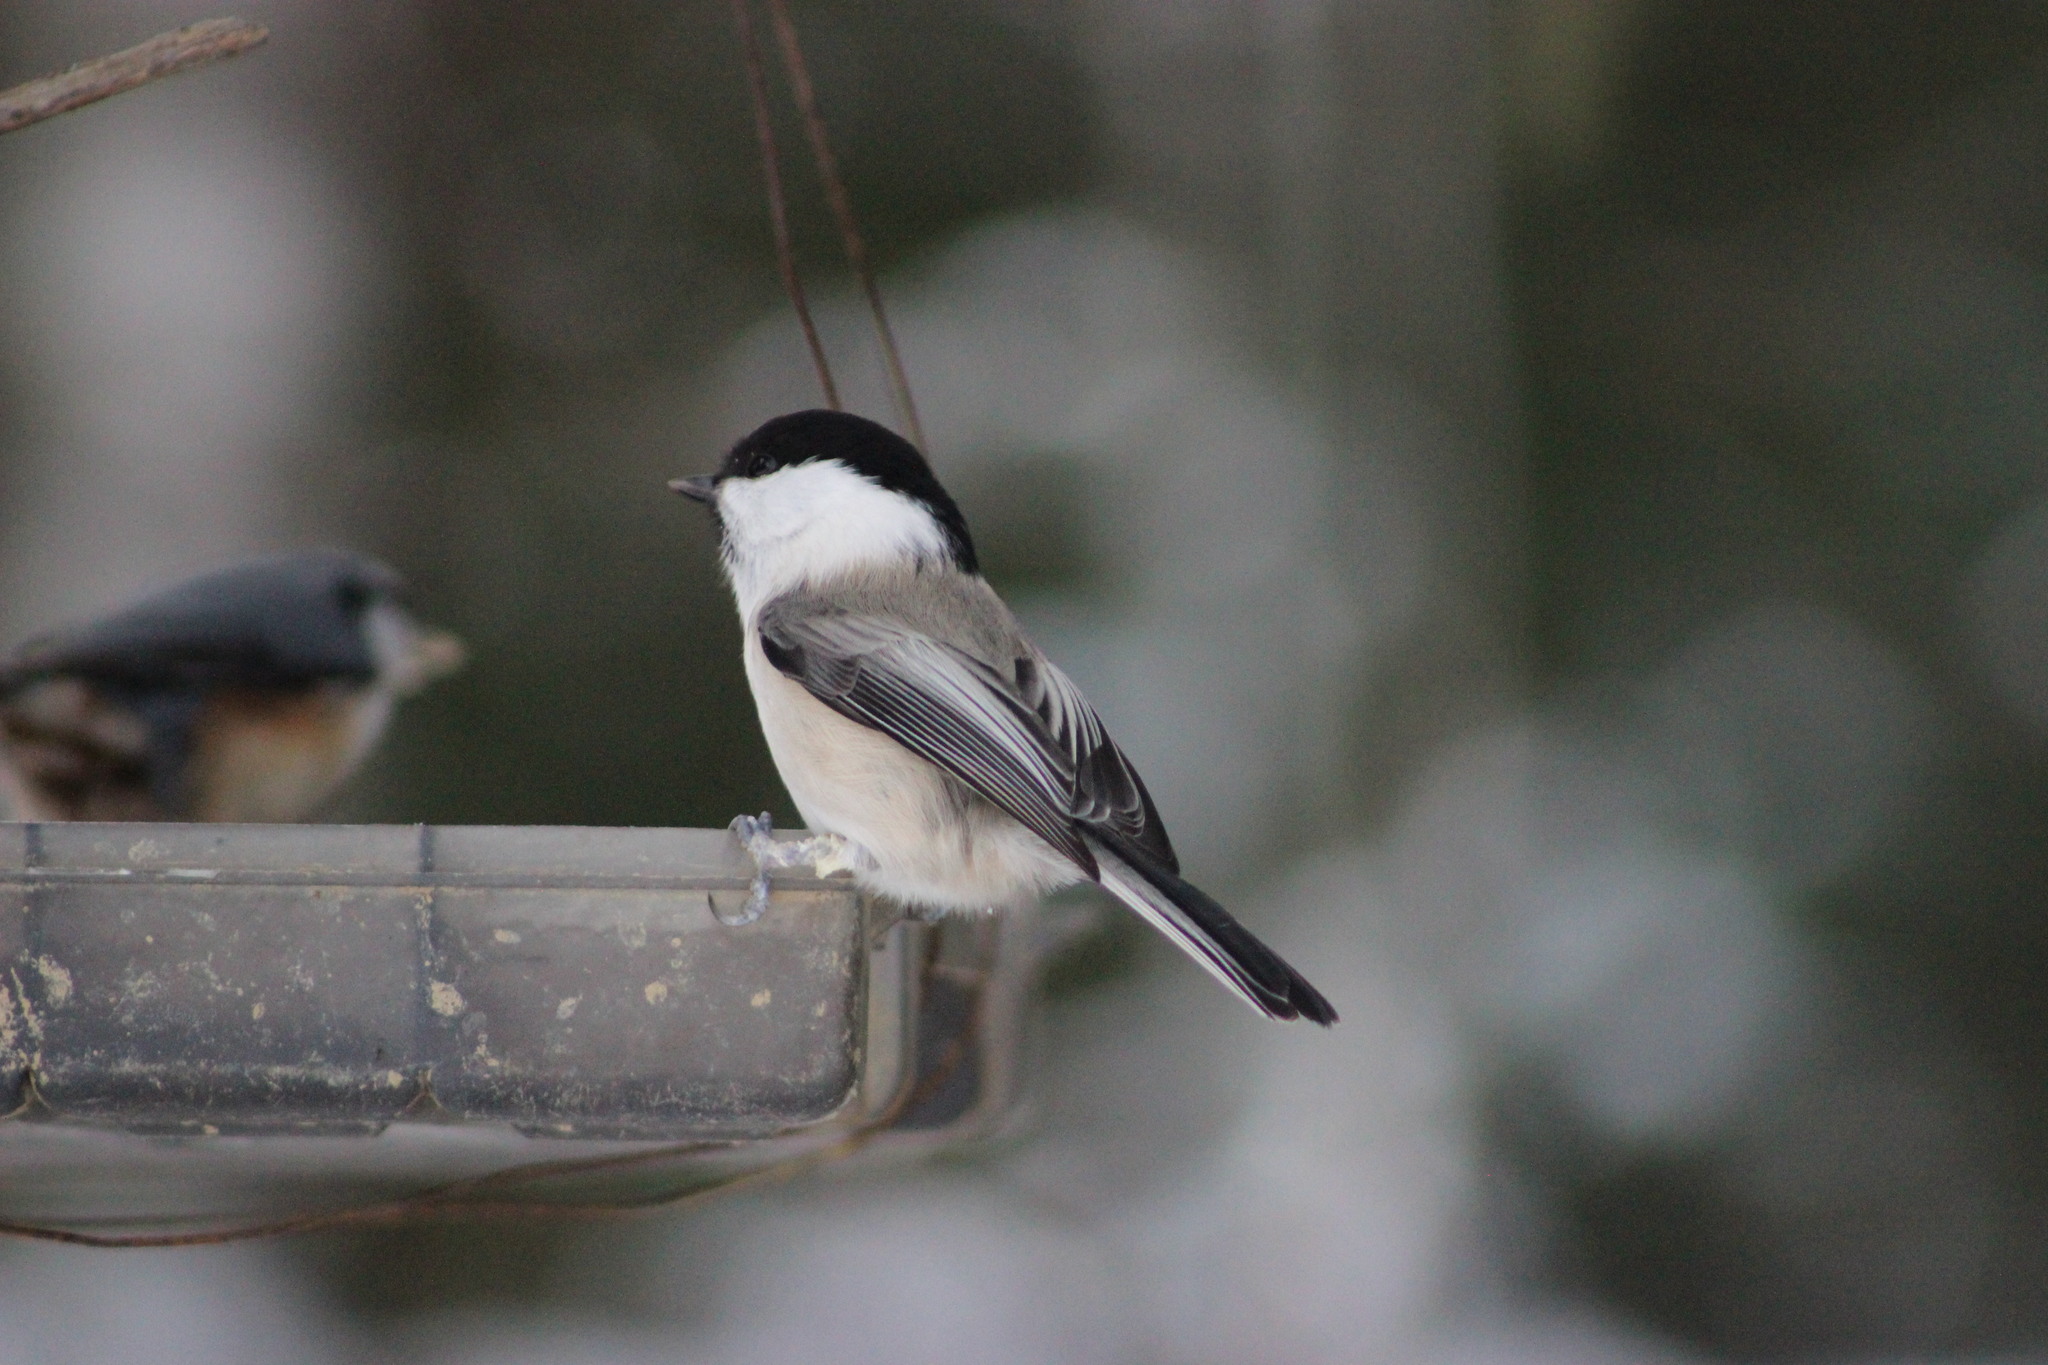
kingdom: Animalia
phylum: Chordata
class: Aves
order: Passeriformes
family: Paridae
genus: Poecile
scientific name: Poecile montanus
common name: Willow tit
